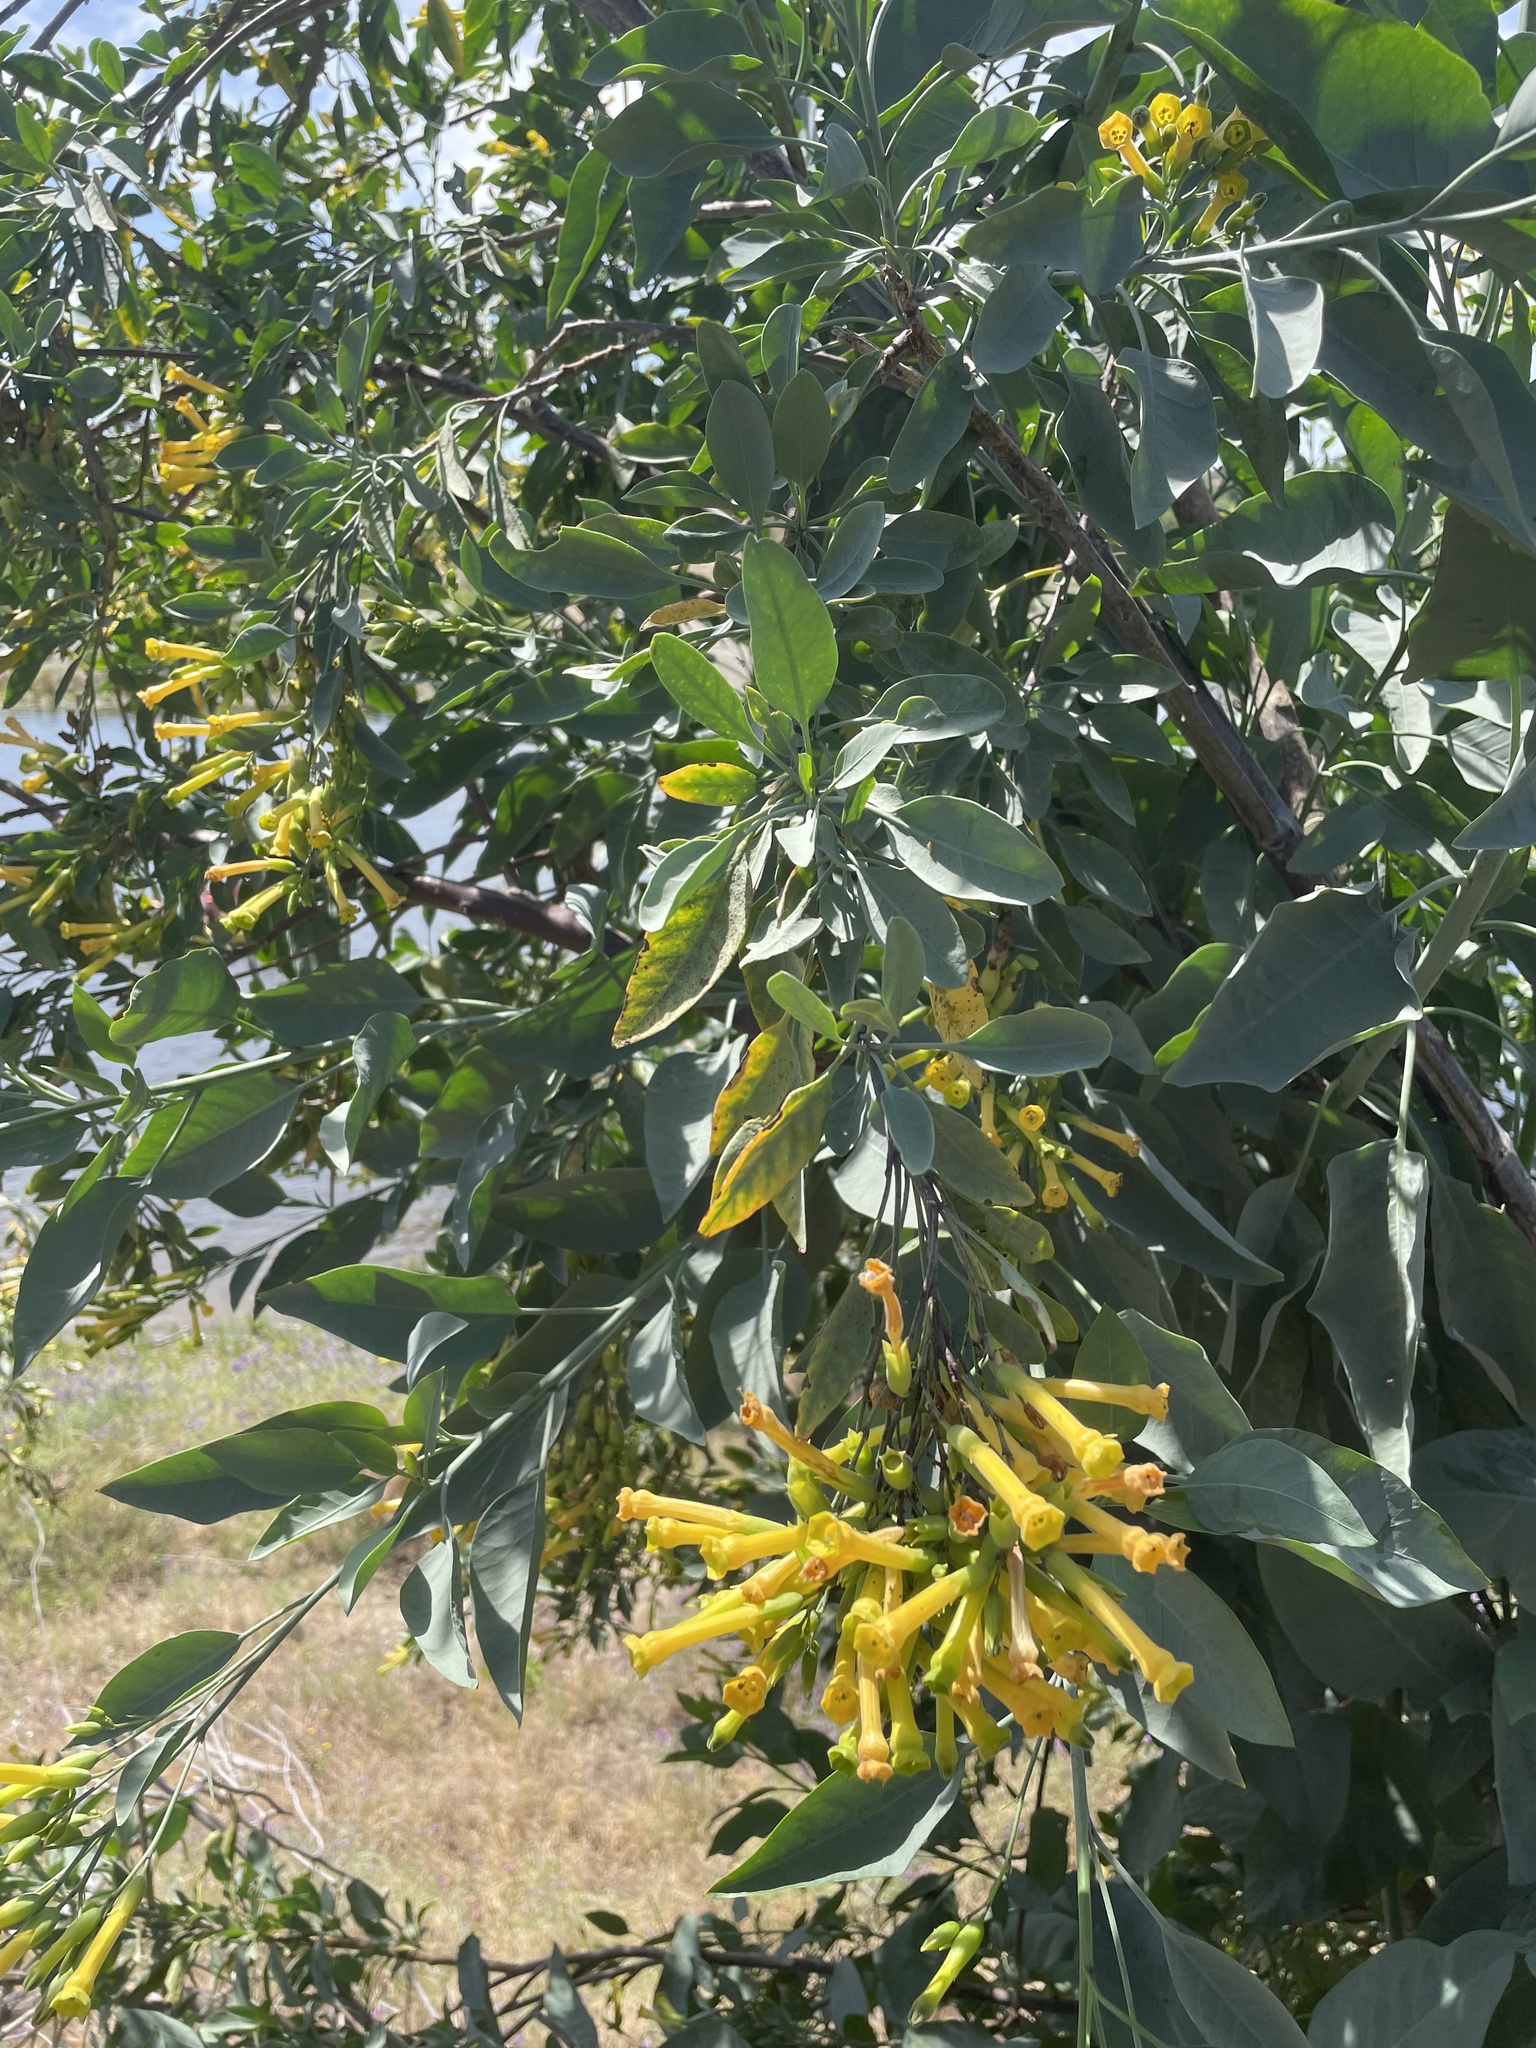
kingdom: Plantae
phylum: Tracheophyta
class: Magnoliopsida
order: Solanales
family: Solanaceae
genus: Nicotiana
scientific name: Nicotiana glauca
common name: Tree tobacco
